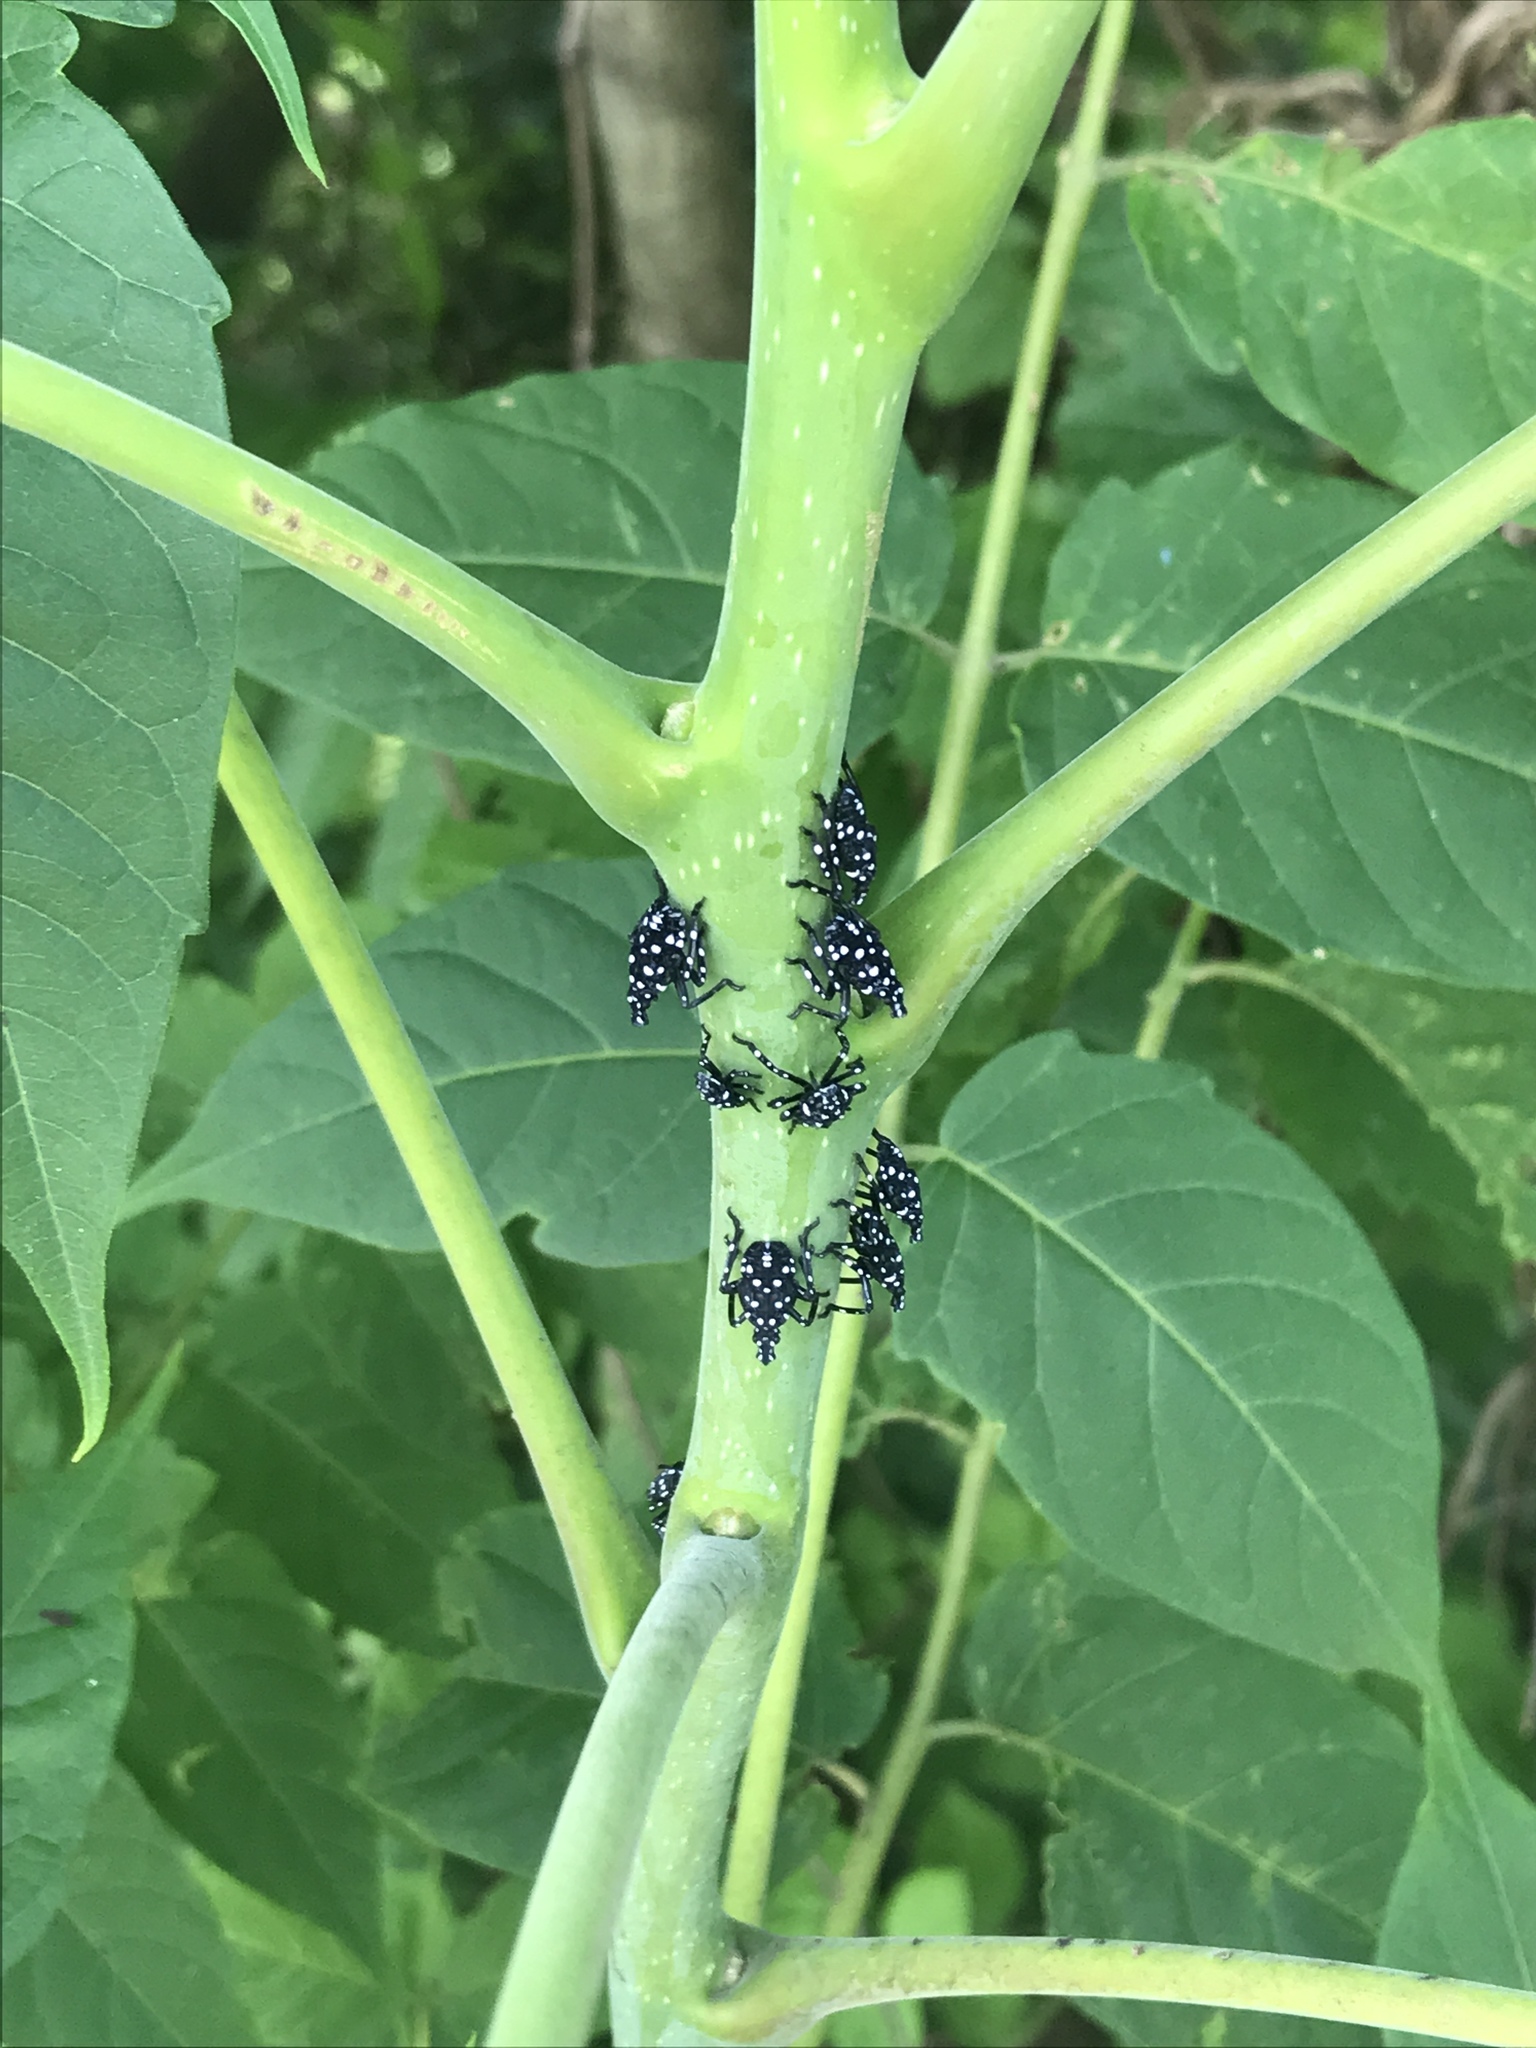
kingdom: Animalia
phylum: Arthropoda
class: Insecta
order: Hemiptera
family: Fulgoridae
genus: Lycorma
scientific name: Lycorma delicatula
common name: Spotted lanternfly
